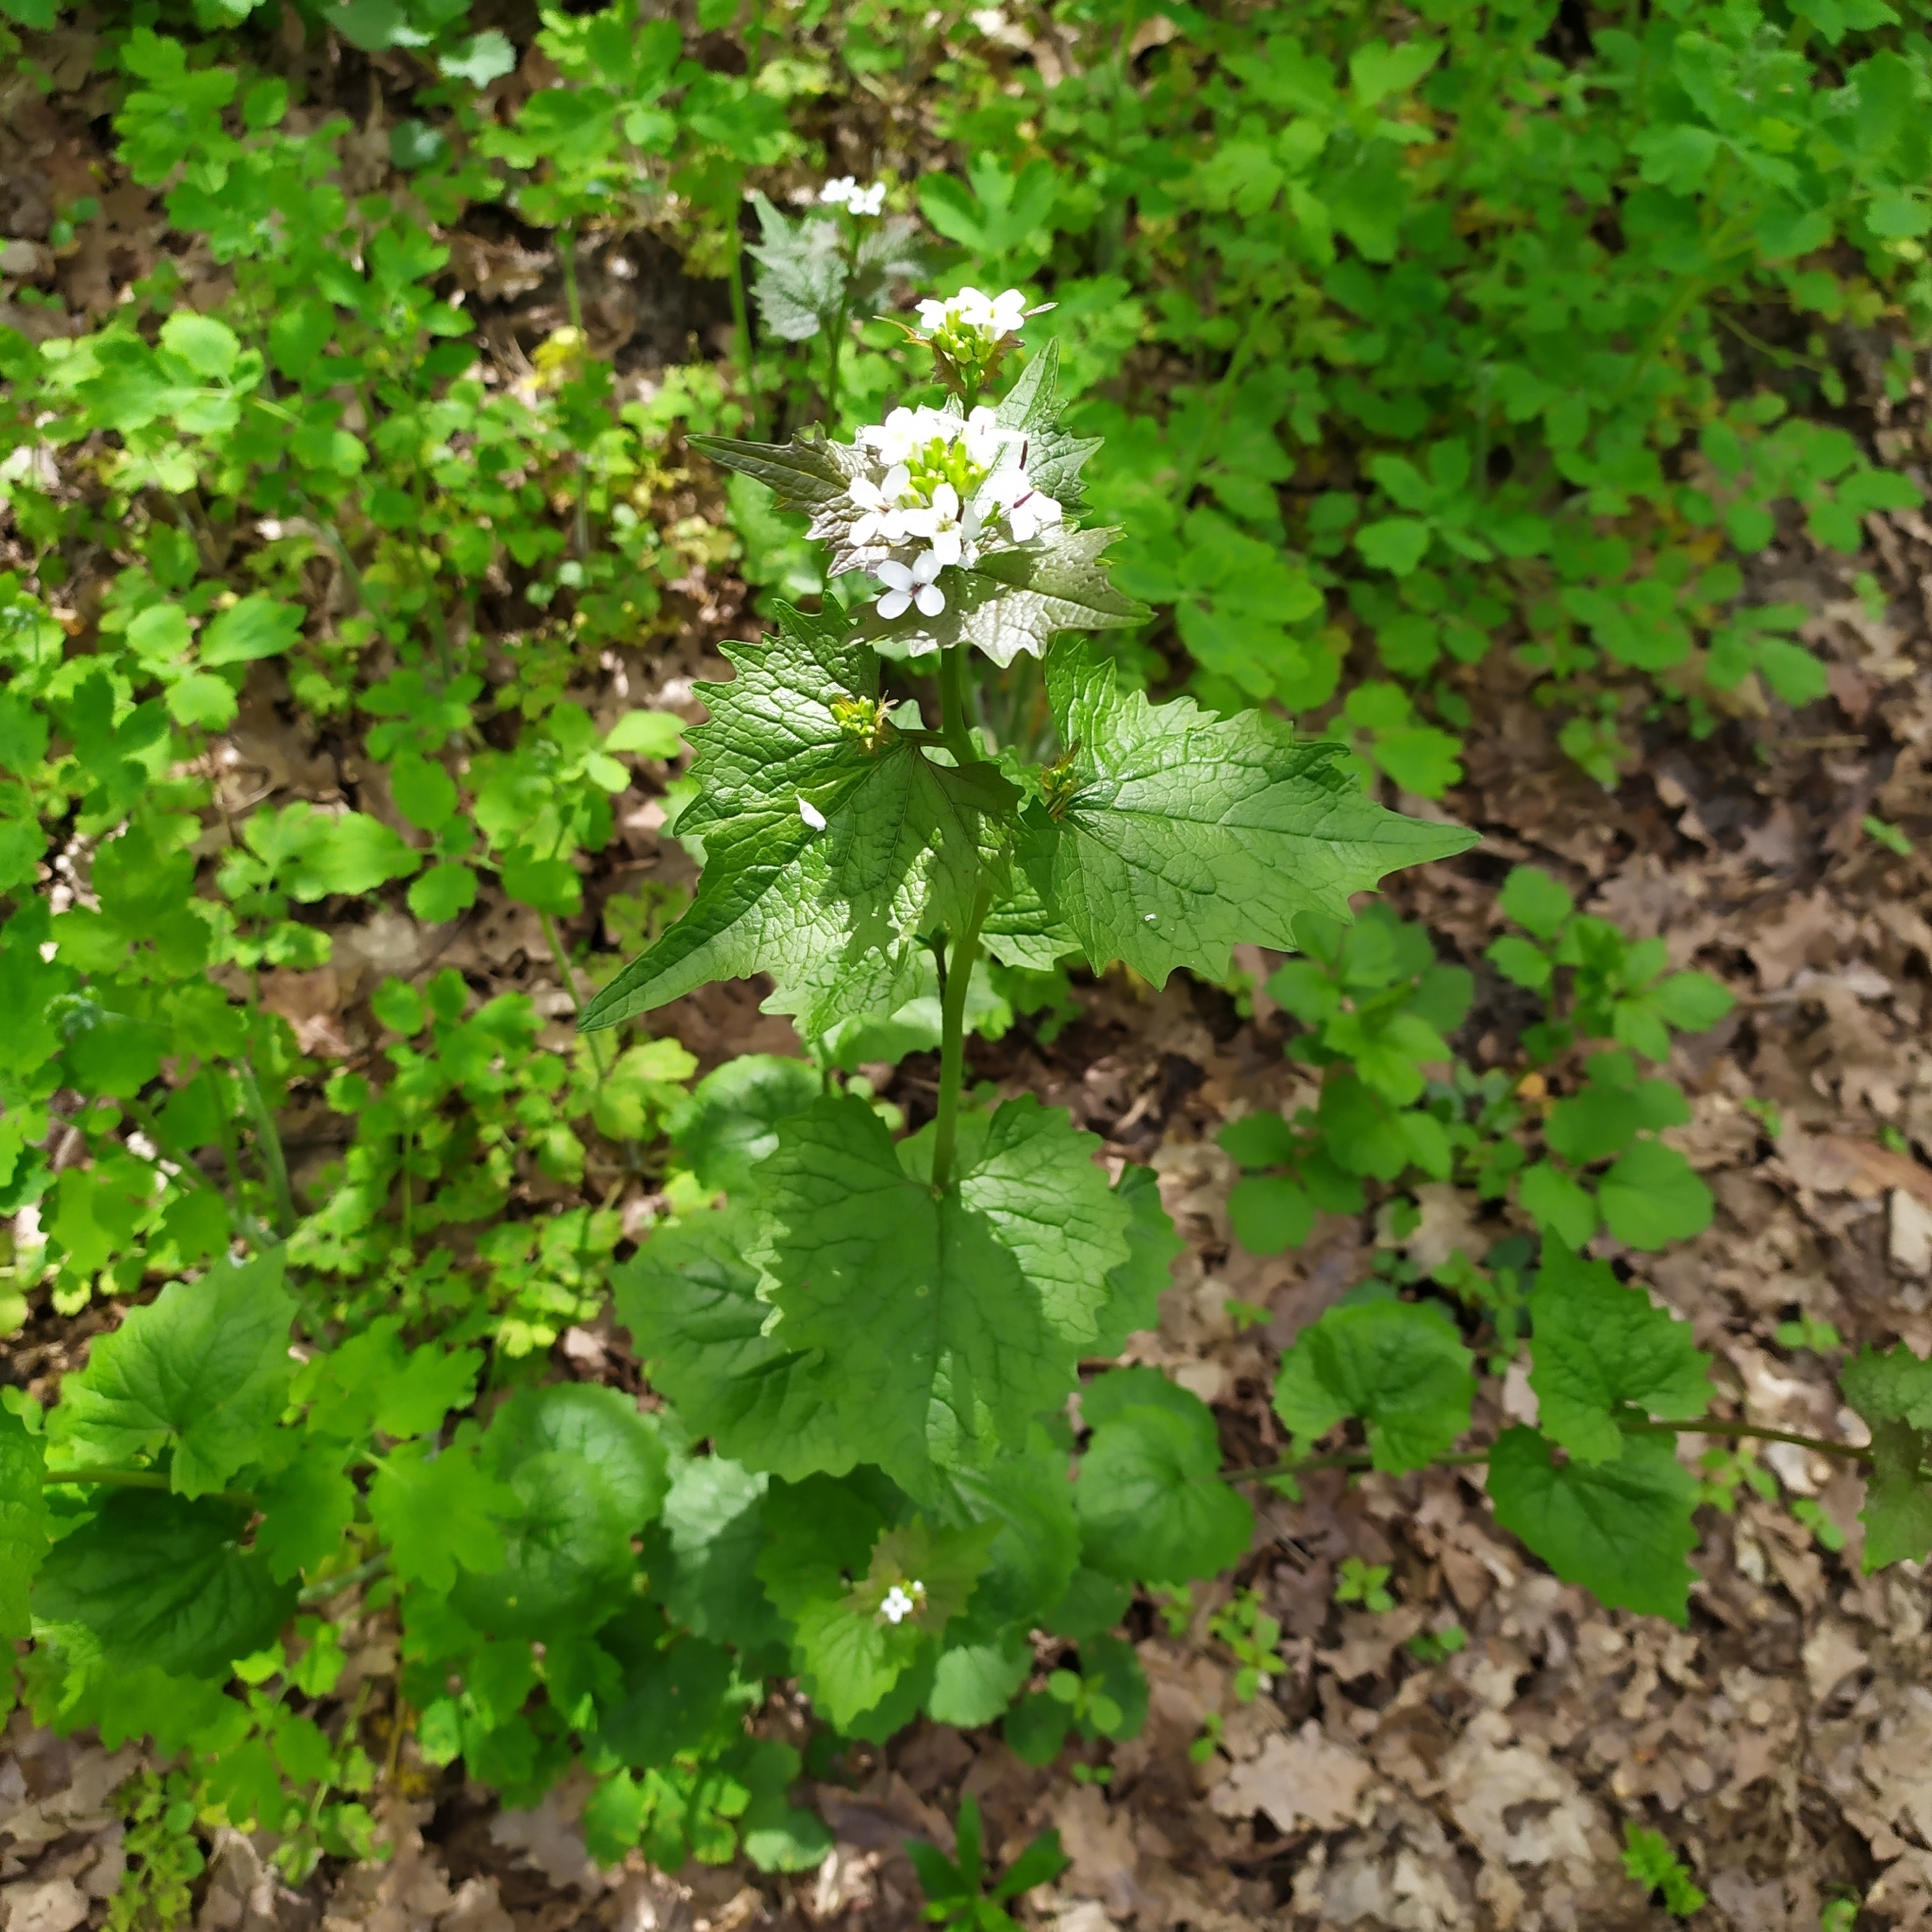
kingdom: Plantae
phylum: Tracheophyta
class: Magnoliopsida
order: Brassicales
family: Brassicaceae
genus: Alliaria
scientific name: Alliaria petiolata
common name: Garlic mustard
